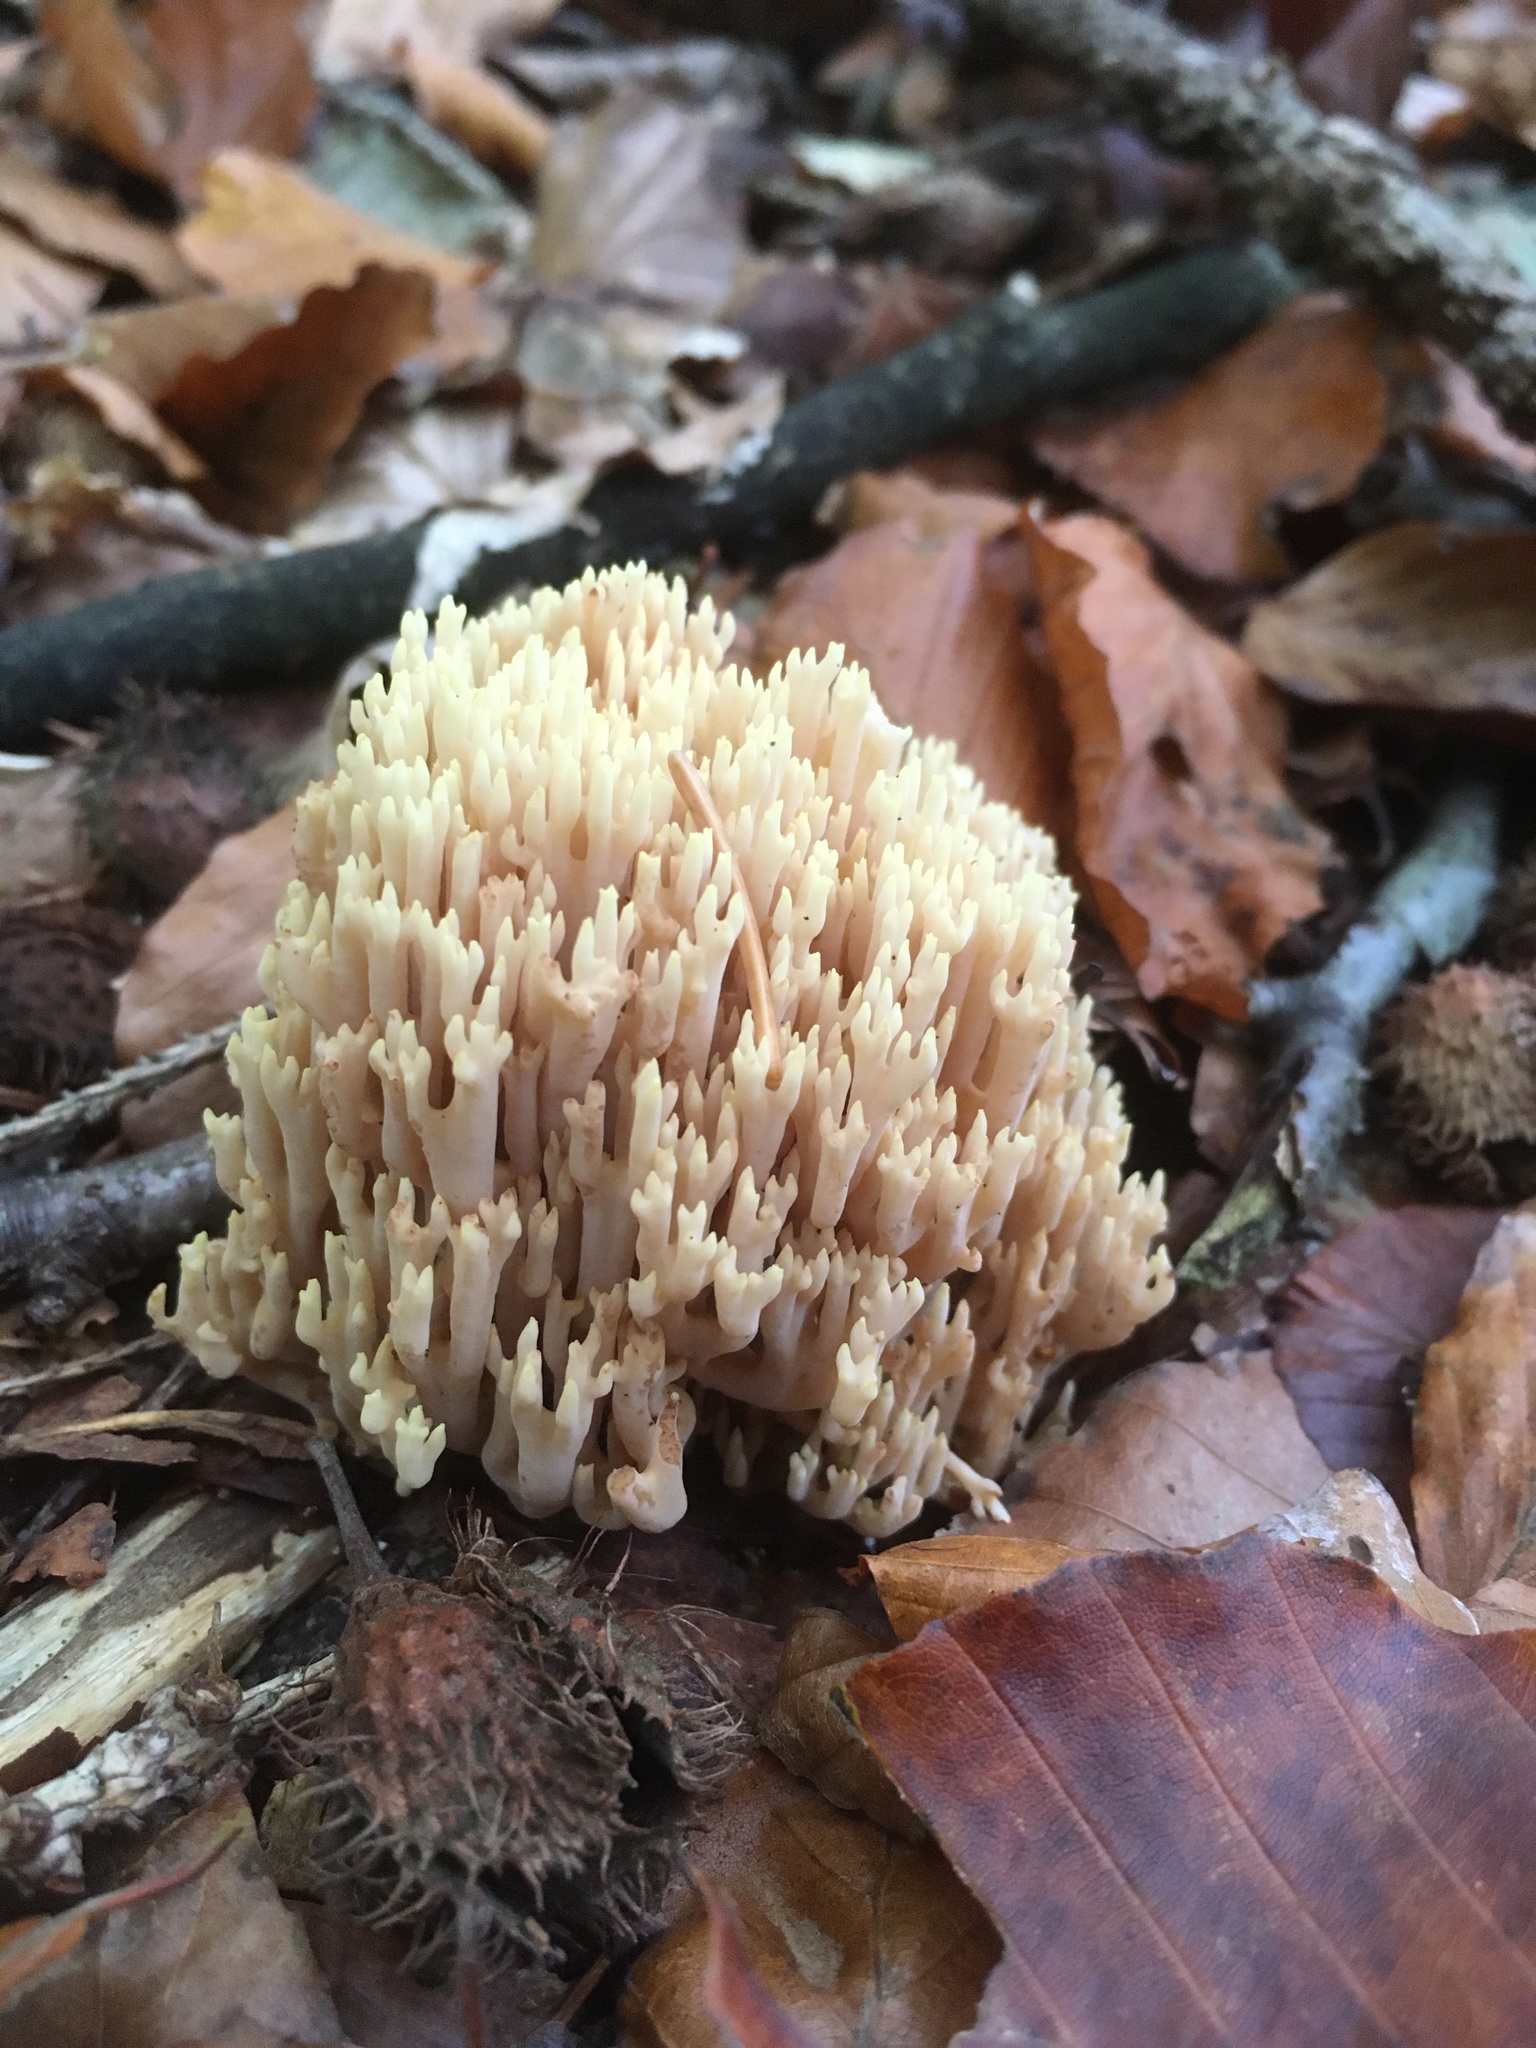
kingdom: Fungi
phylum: Basidiomycota
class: Agaricomycetes
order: Gomphales
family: Gomphaceae
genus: Ramaria
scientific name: Ramaria stricta
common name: Upright coral
